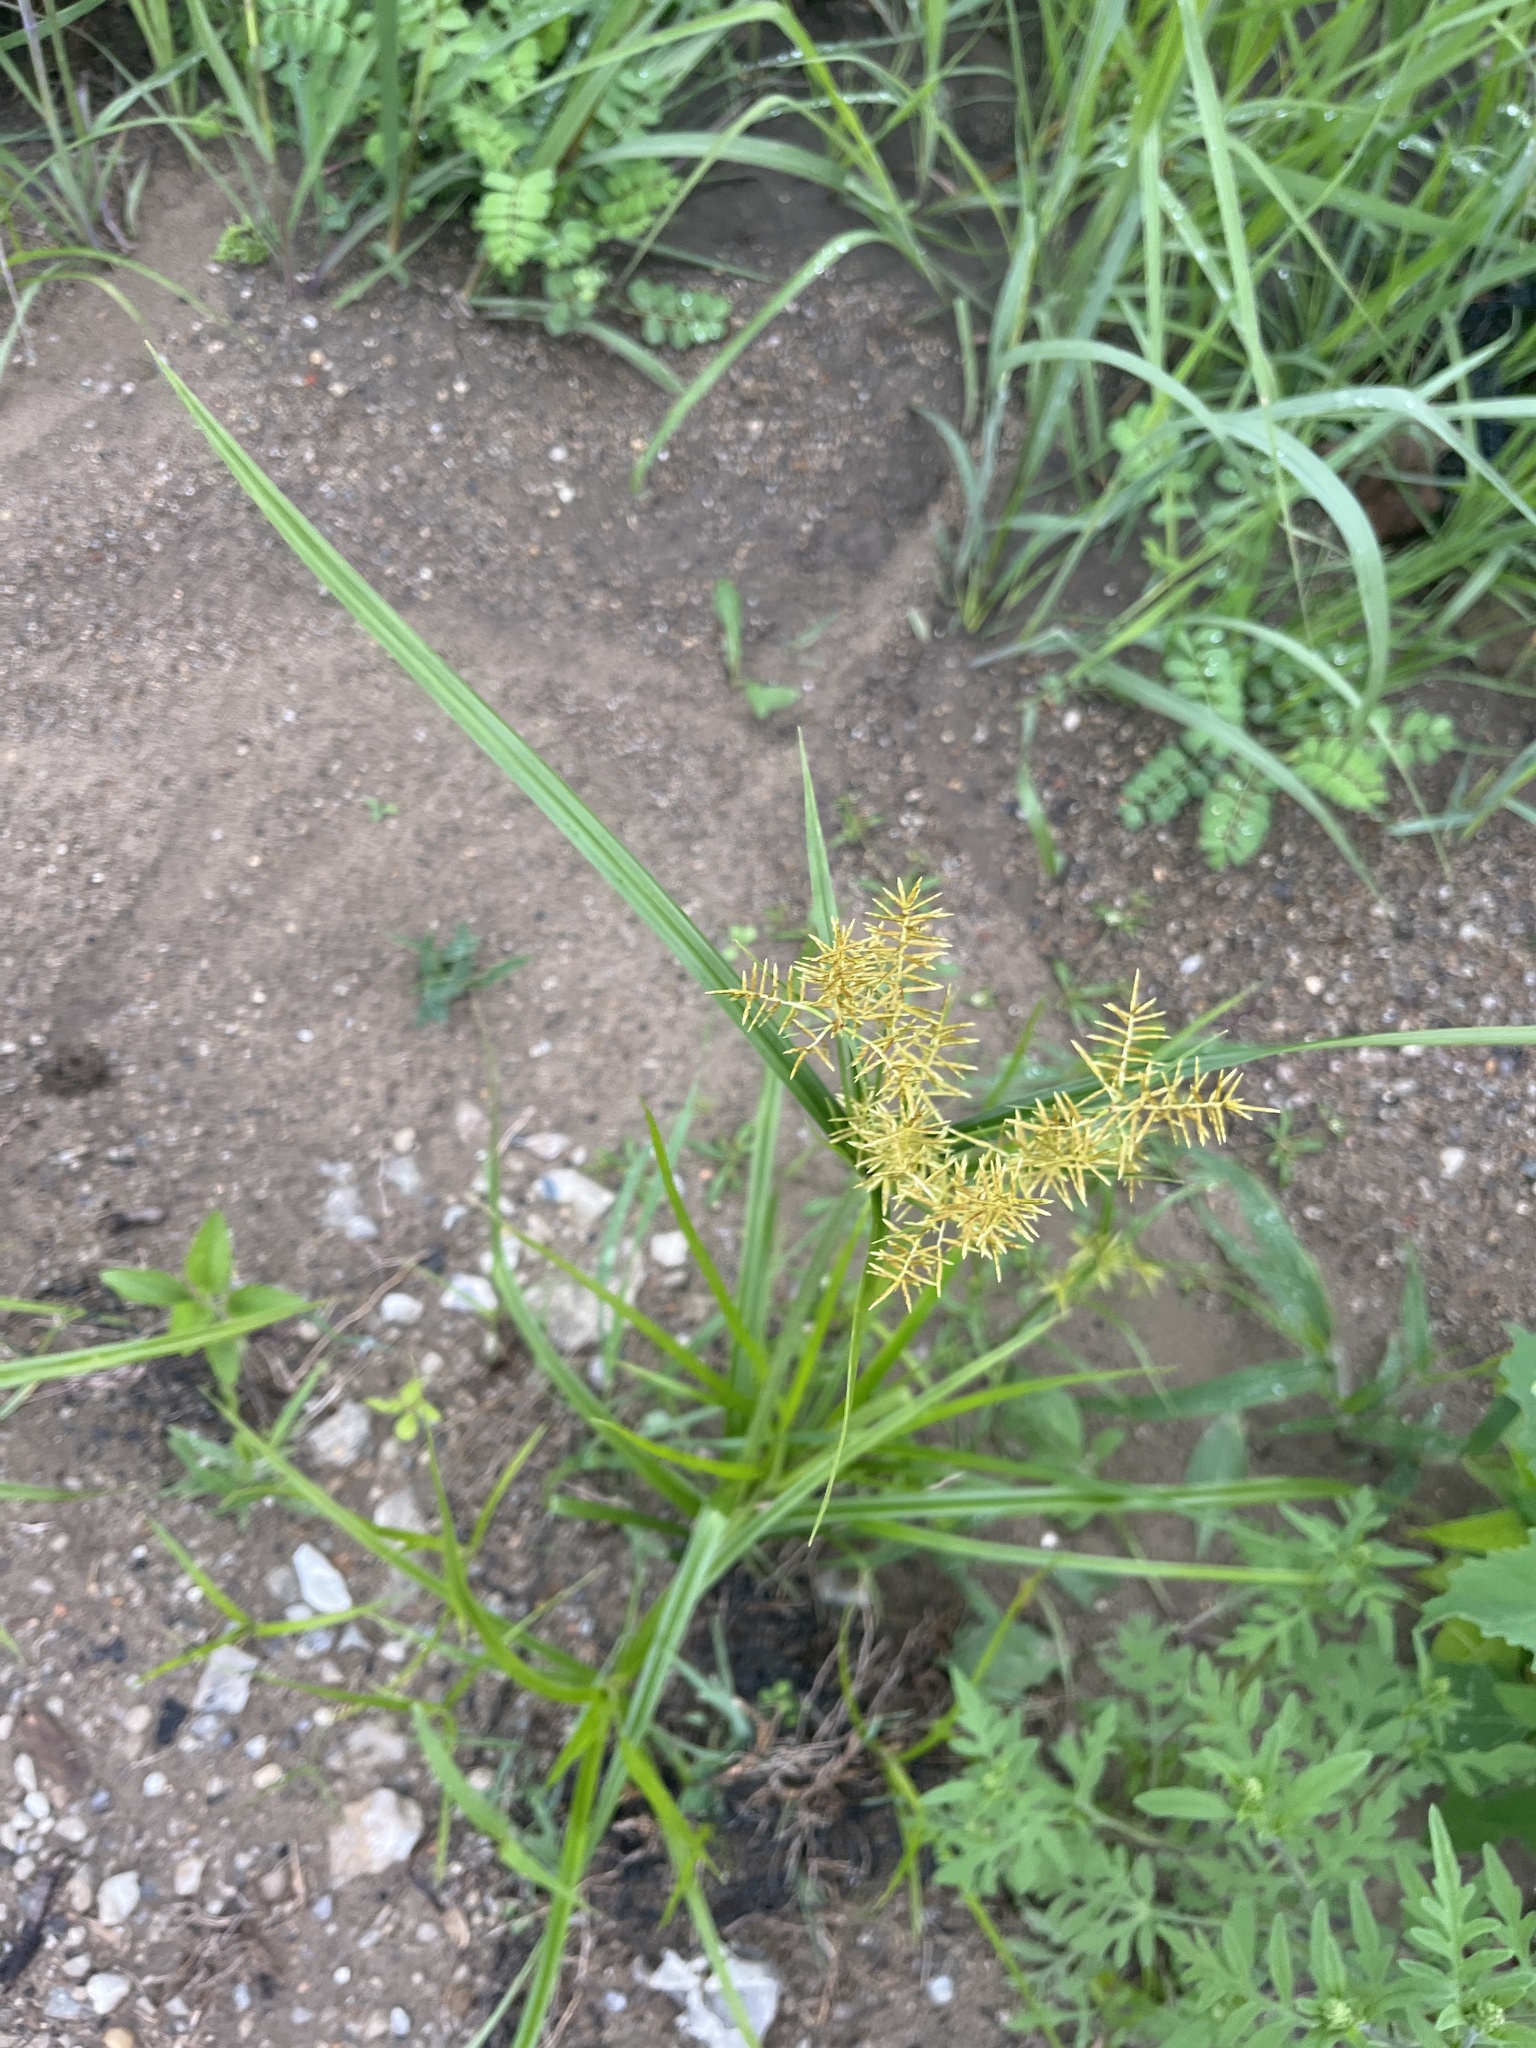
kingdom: Plantae
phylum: Tracheophyta
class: Liliopsida
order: Poales
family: Cyperaceae
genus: Cyperus
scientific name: Cyperus esculentus
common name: Yellow nutsedge
